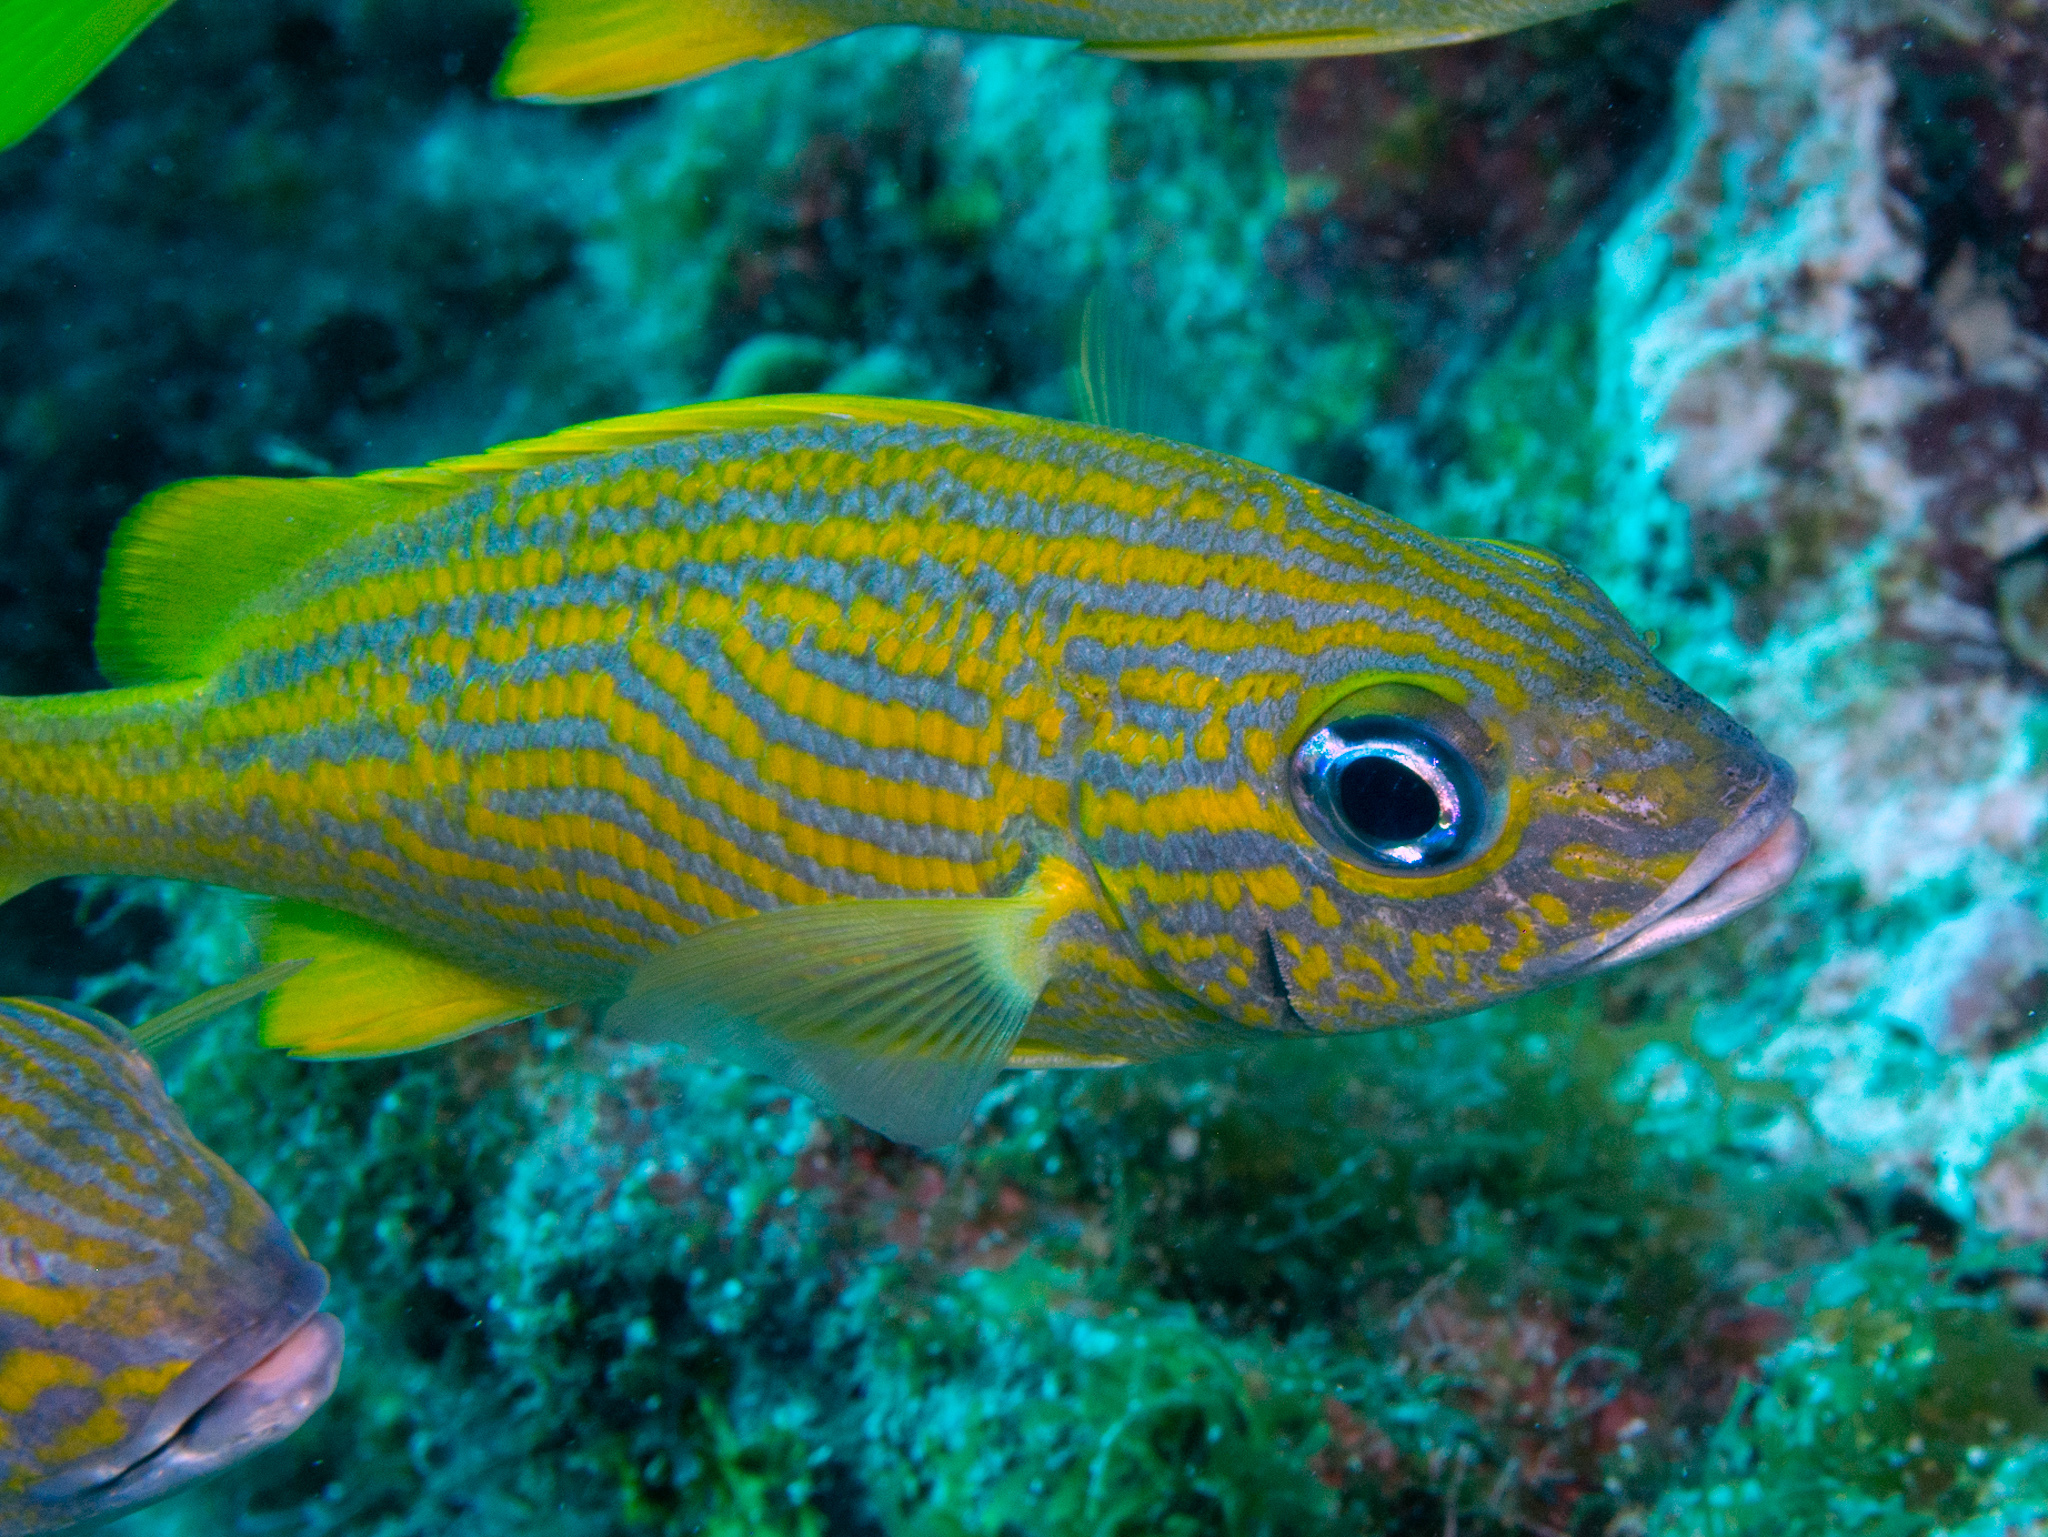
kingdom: Animalia
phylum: Chordata
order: Perciformes
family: Haemulidae
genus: Haemulon
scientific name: Haemulon flavolineatum
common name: French grunt
